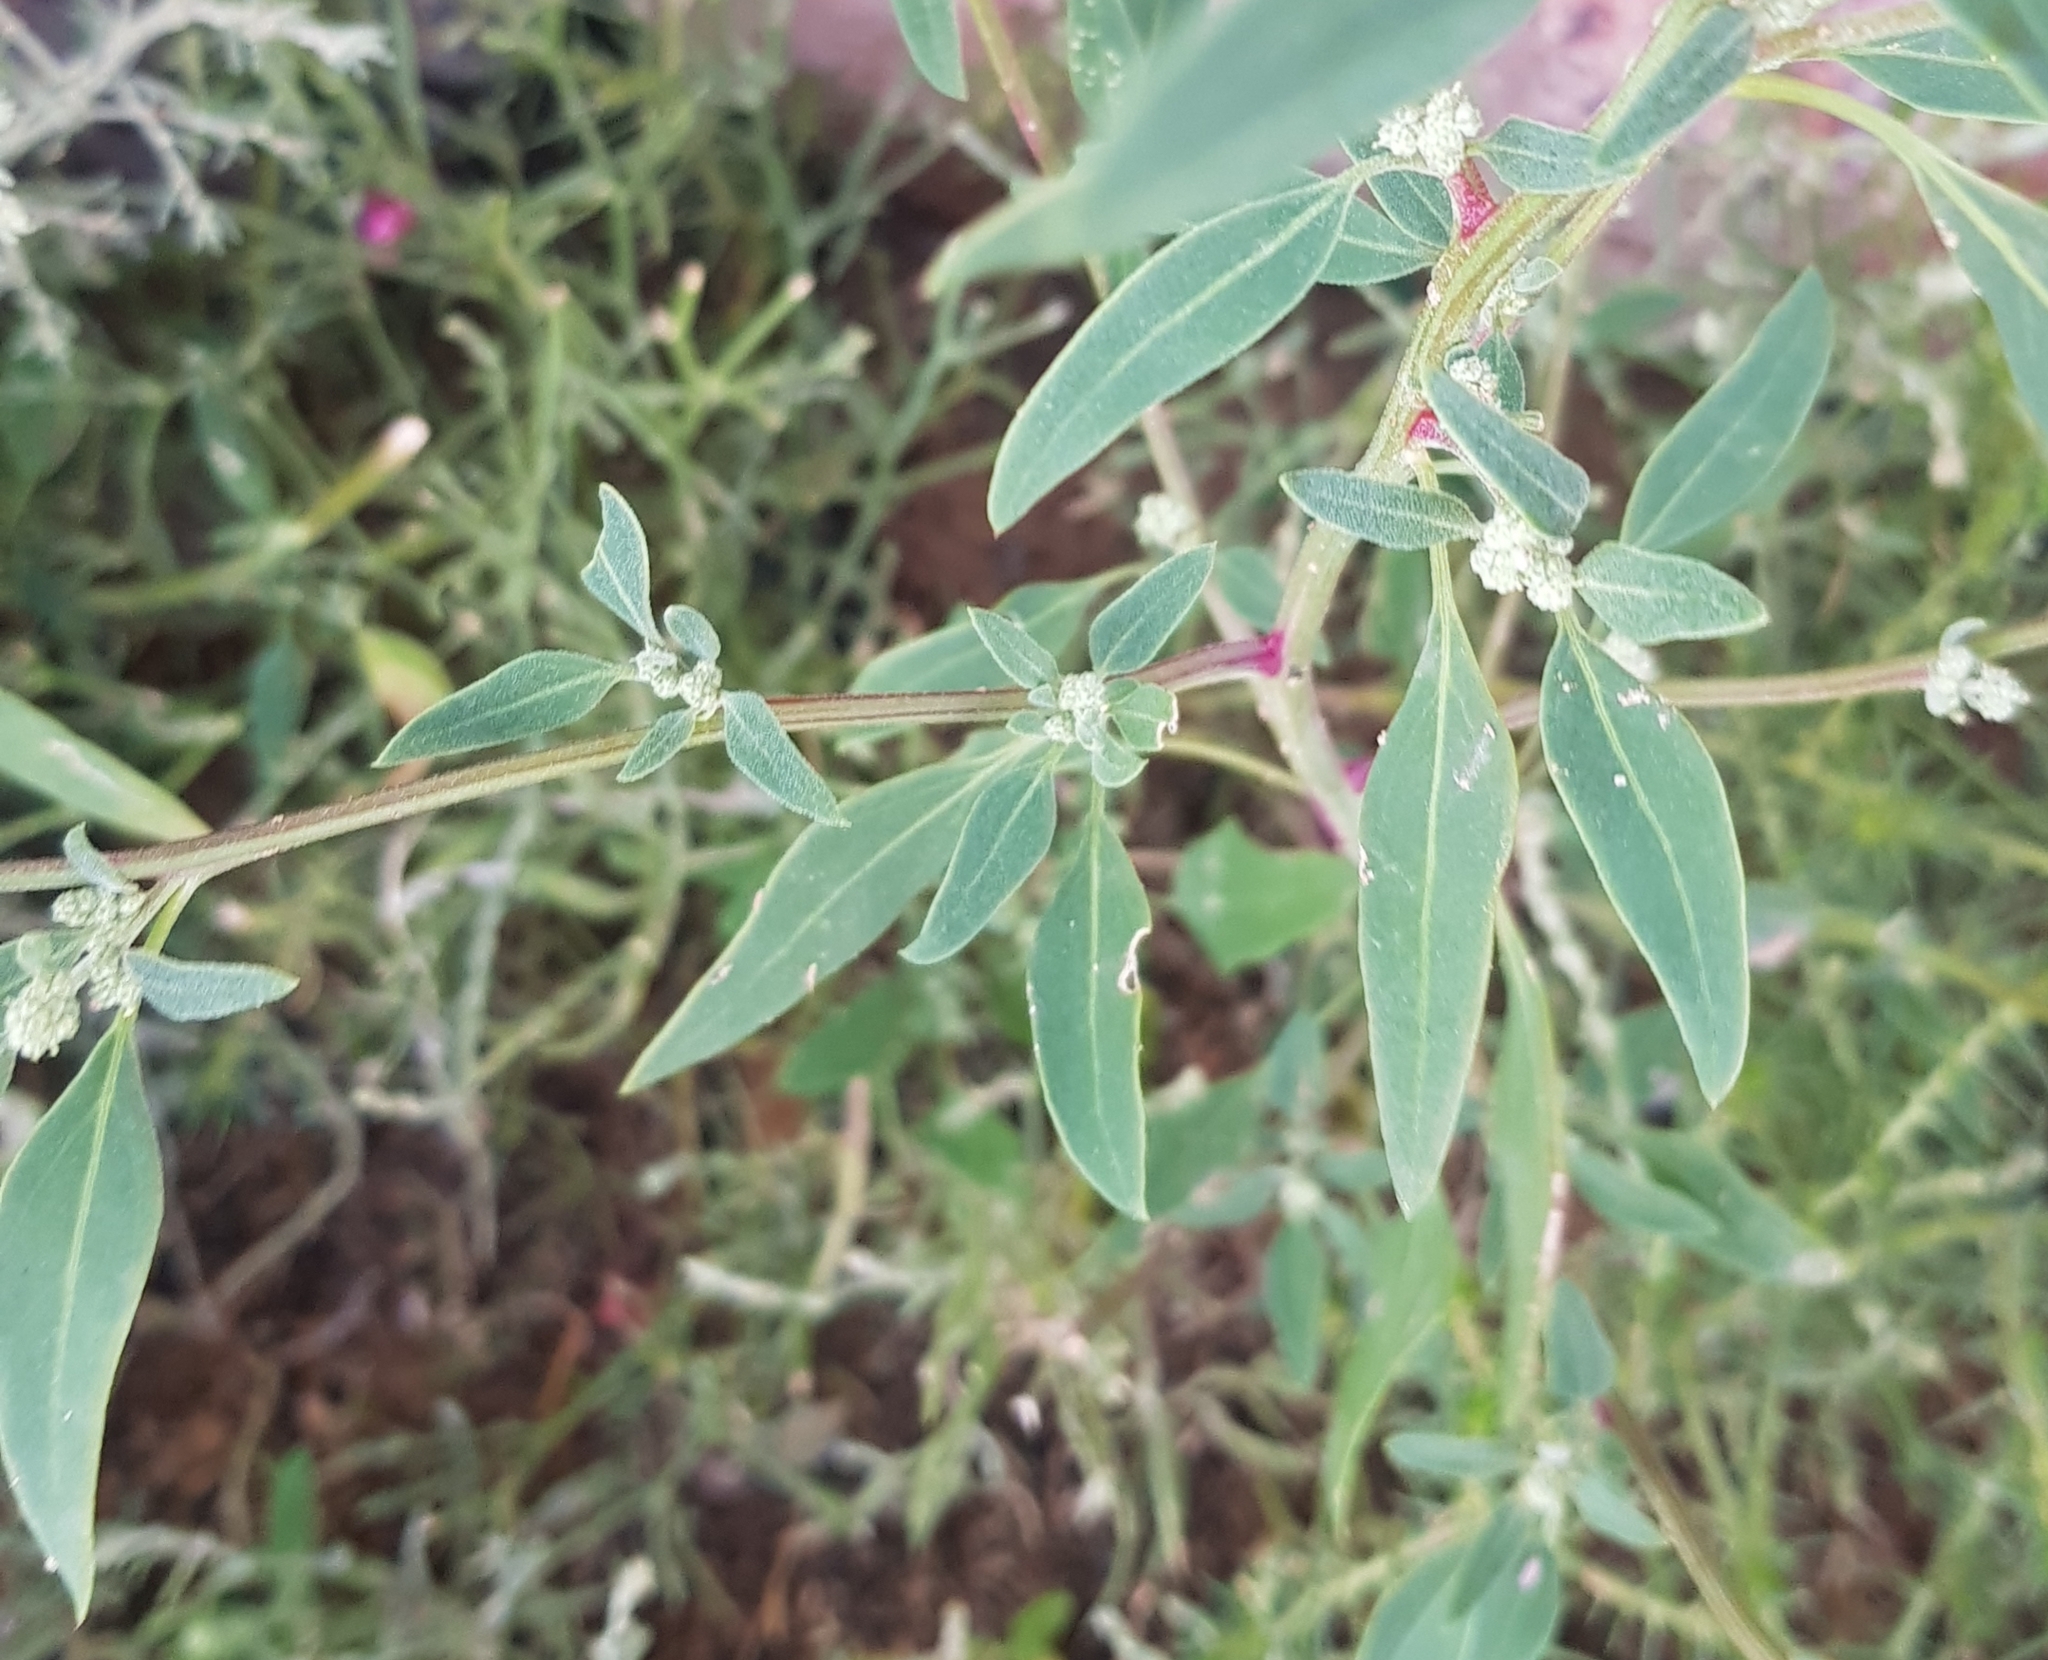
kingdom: Plantae
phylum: Tracheophyta
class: Magnoliopsida
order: Caryophyllales
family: Amaranthaceae
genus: Chenopodium
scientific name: Chenopodium album
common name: Fat-hen
